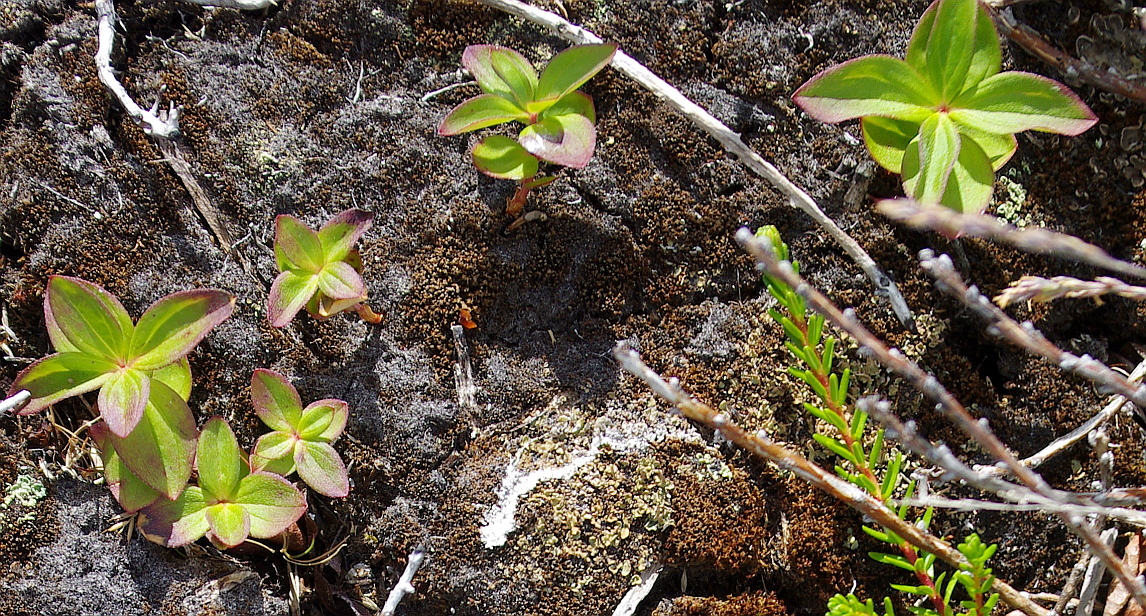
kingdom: Plantae
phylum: Tracheophyta
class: Magnoliopsida
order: Cornales
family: Cornaceae
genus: Cornus
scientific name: Cornus suecica
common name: Dwarf cornel
